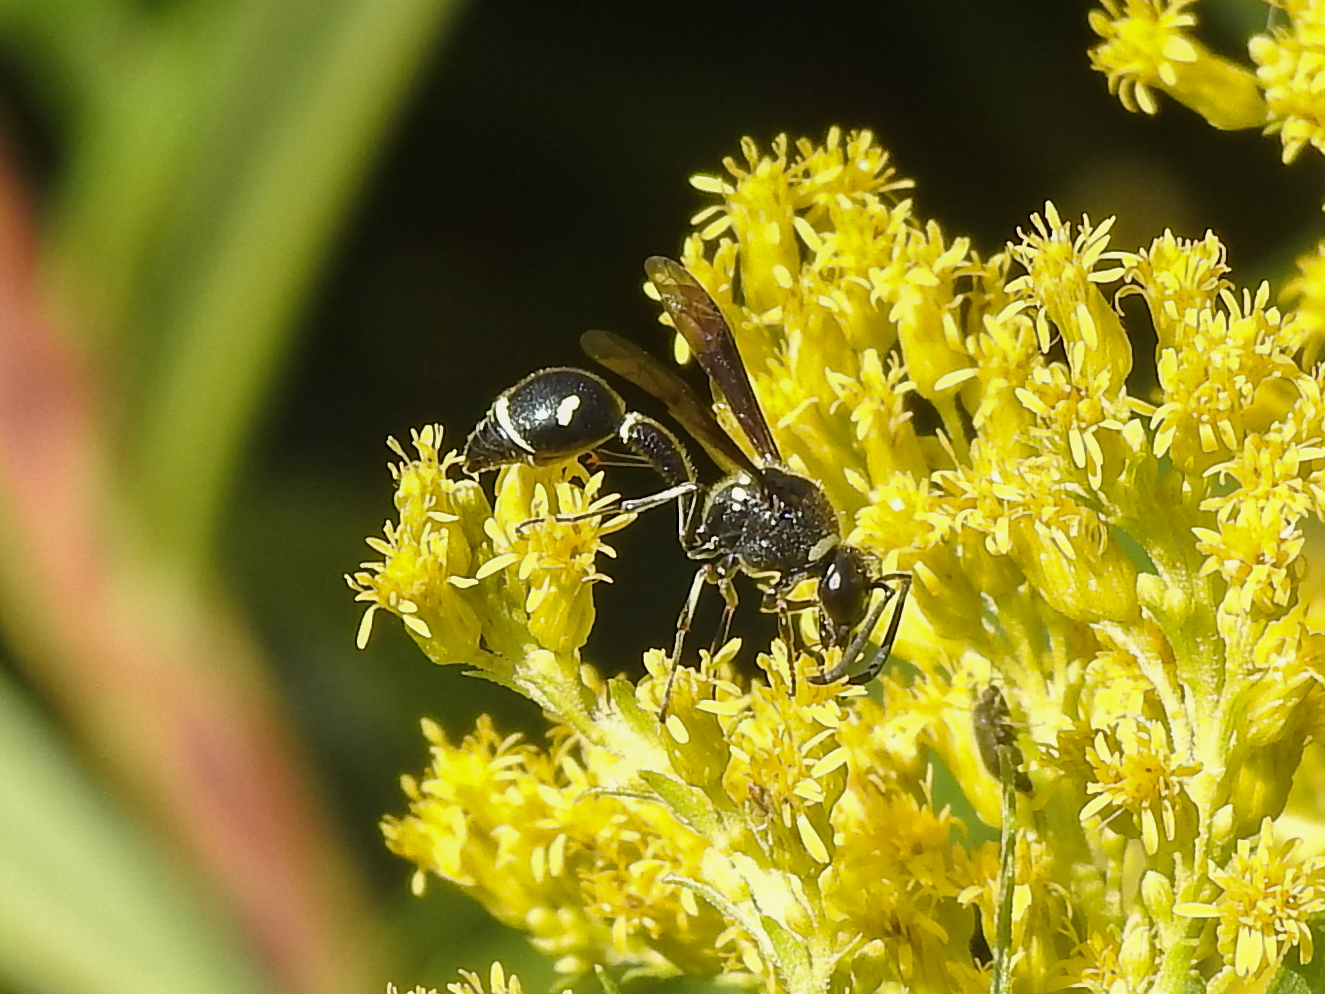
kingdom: Animalia
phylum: Arthropoda
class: Insecta
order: Hymenoptera
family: Vespidae
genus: Eumenes
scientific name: Eumenes fraternus
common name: Fraternal potter wasp
